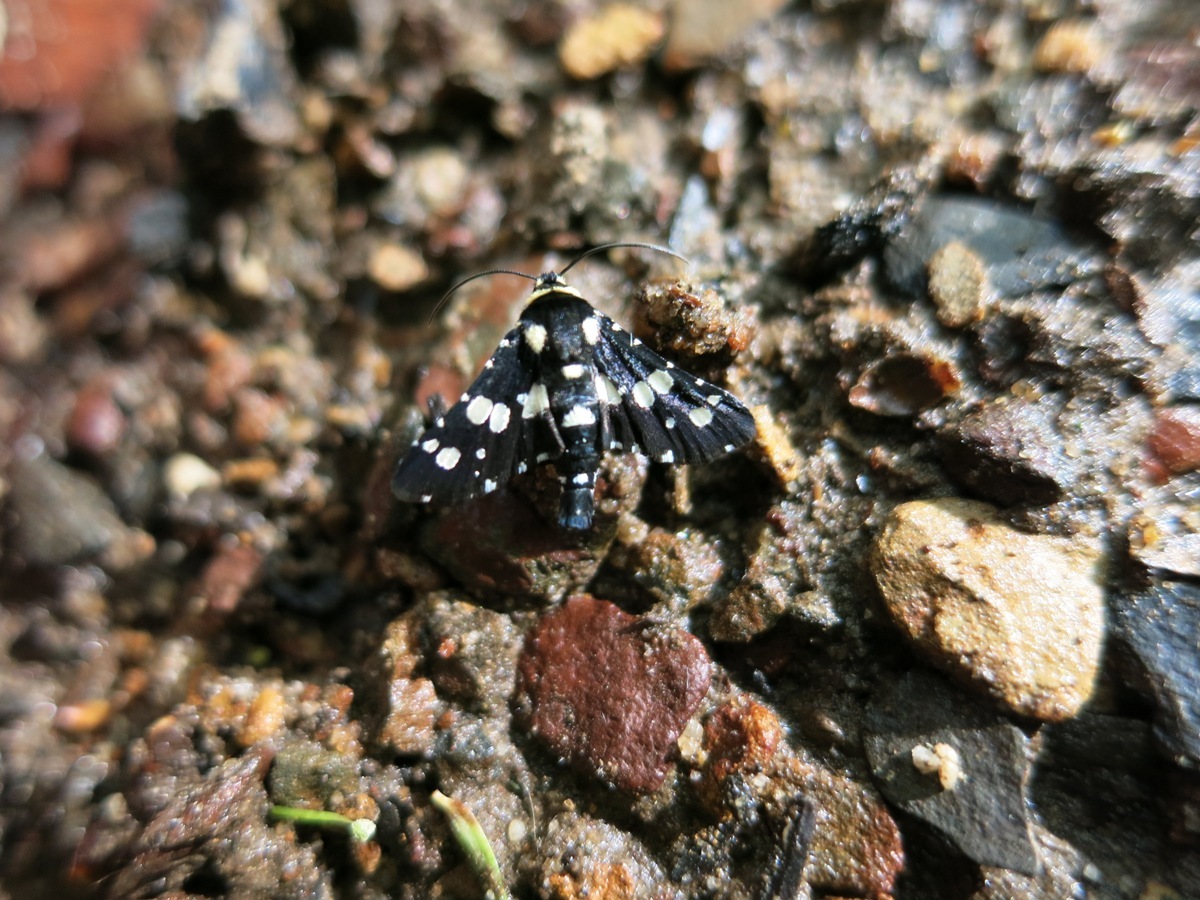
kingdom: Animalia
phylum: Arthropoda
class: Insecta
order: Lepidoptera
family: Thyrididae
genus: Pseudothyris
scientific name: Pseudothyris sepulchralis
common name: Mournful thyris moth
